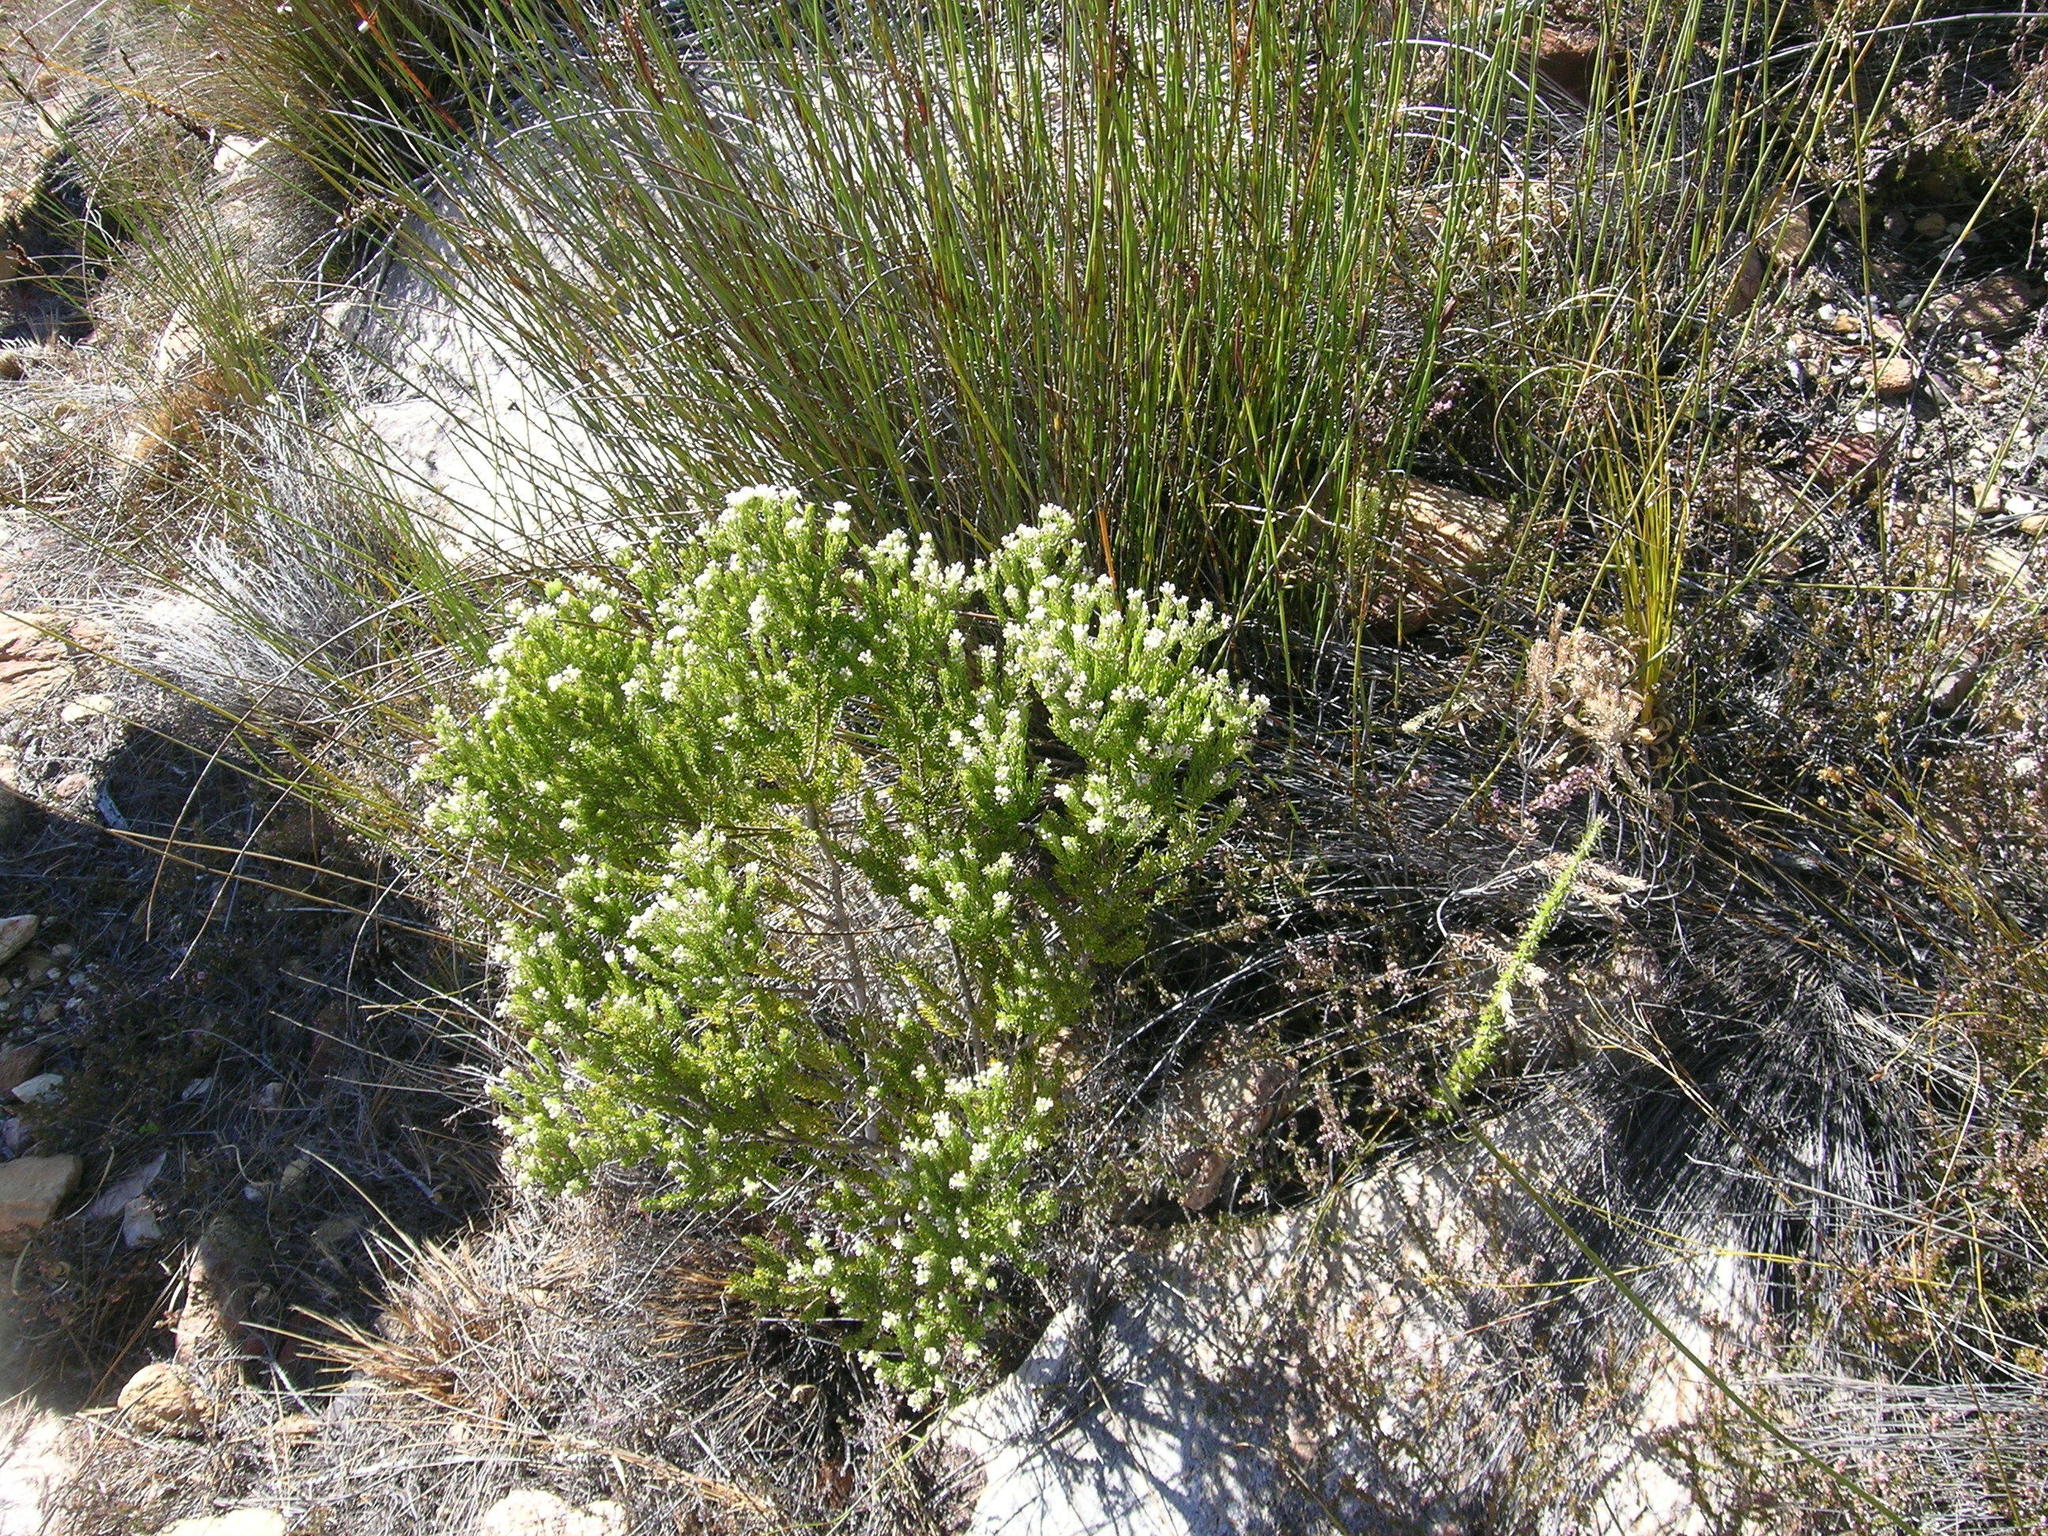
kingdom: Plantae
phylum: Tracheophyta
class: Magnoliopsida
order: Rosales
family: Rhamnaceae
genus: Phylica
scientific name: Phylica pinea
